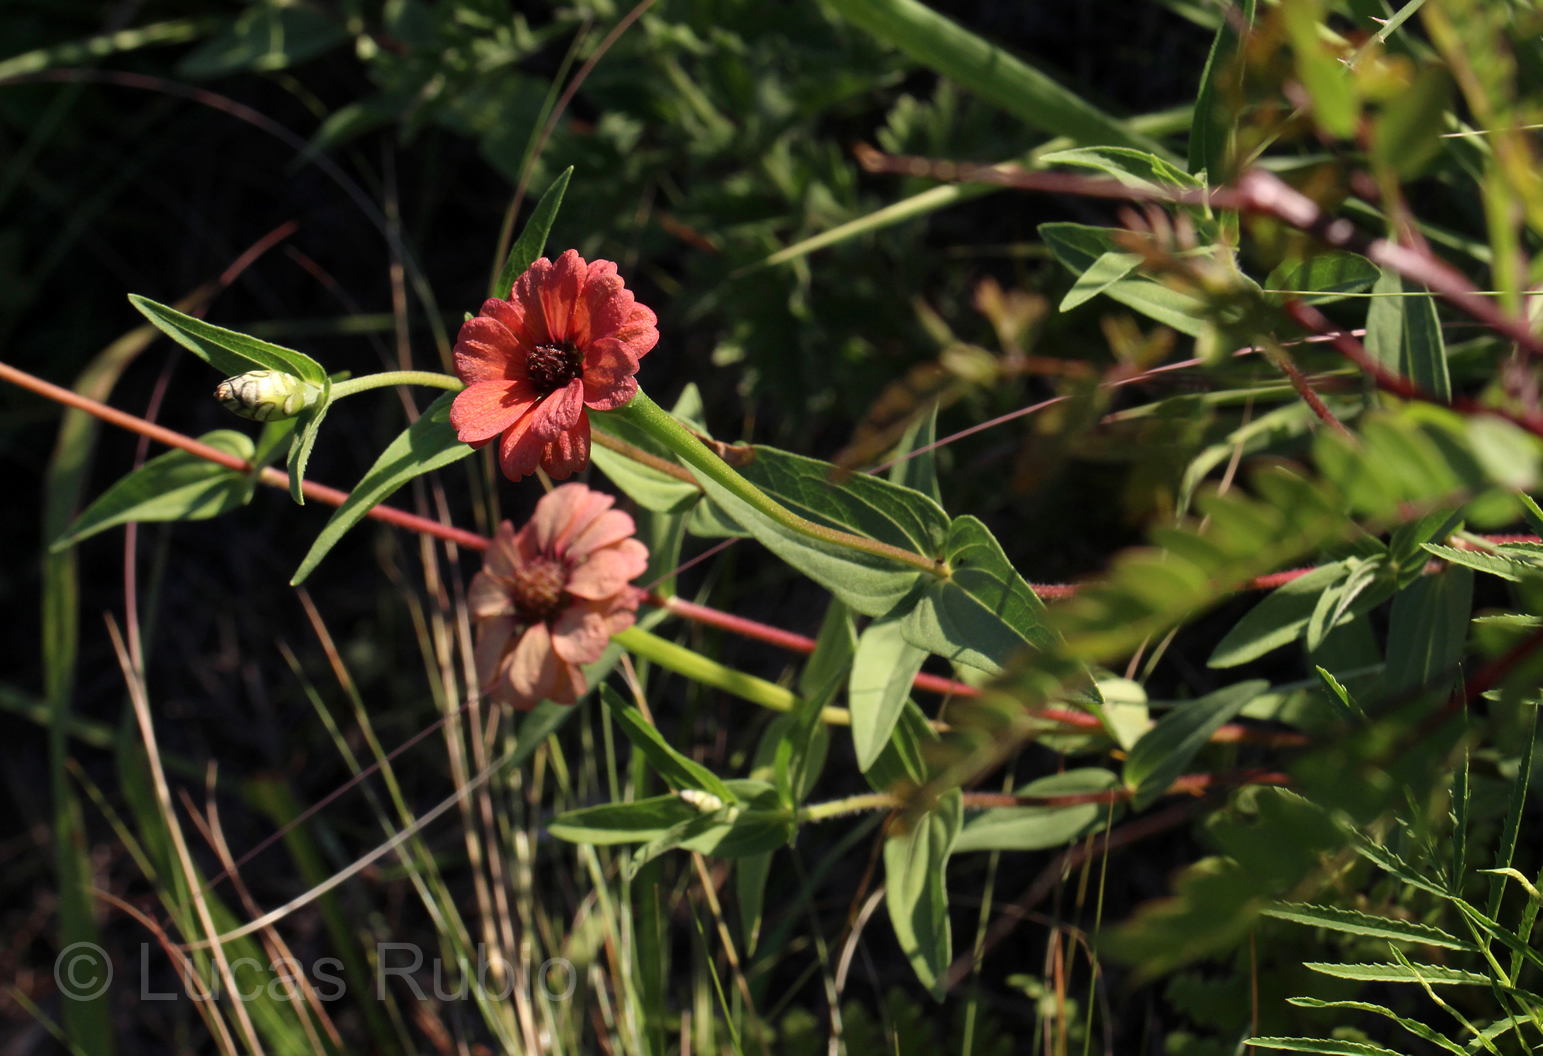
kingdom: Plantae
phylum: Tracheophyta
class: Magnoliopsida
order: Asterales
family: Asteraceae
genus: Zinnia
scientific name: Zinnia peruviana
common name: Peruvian zinnia
